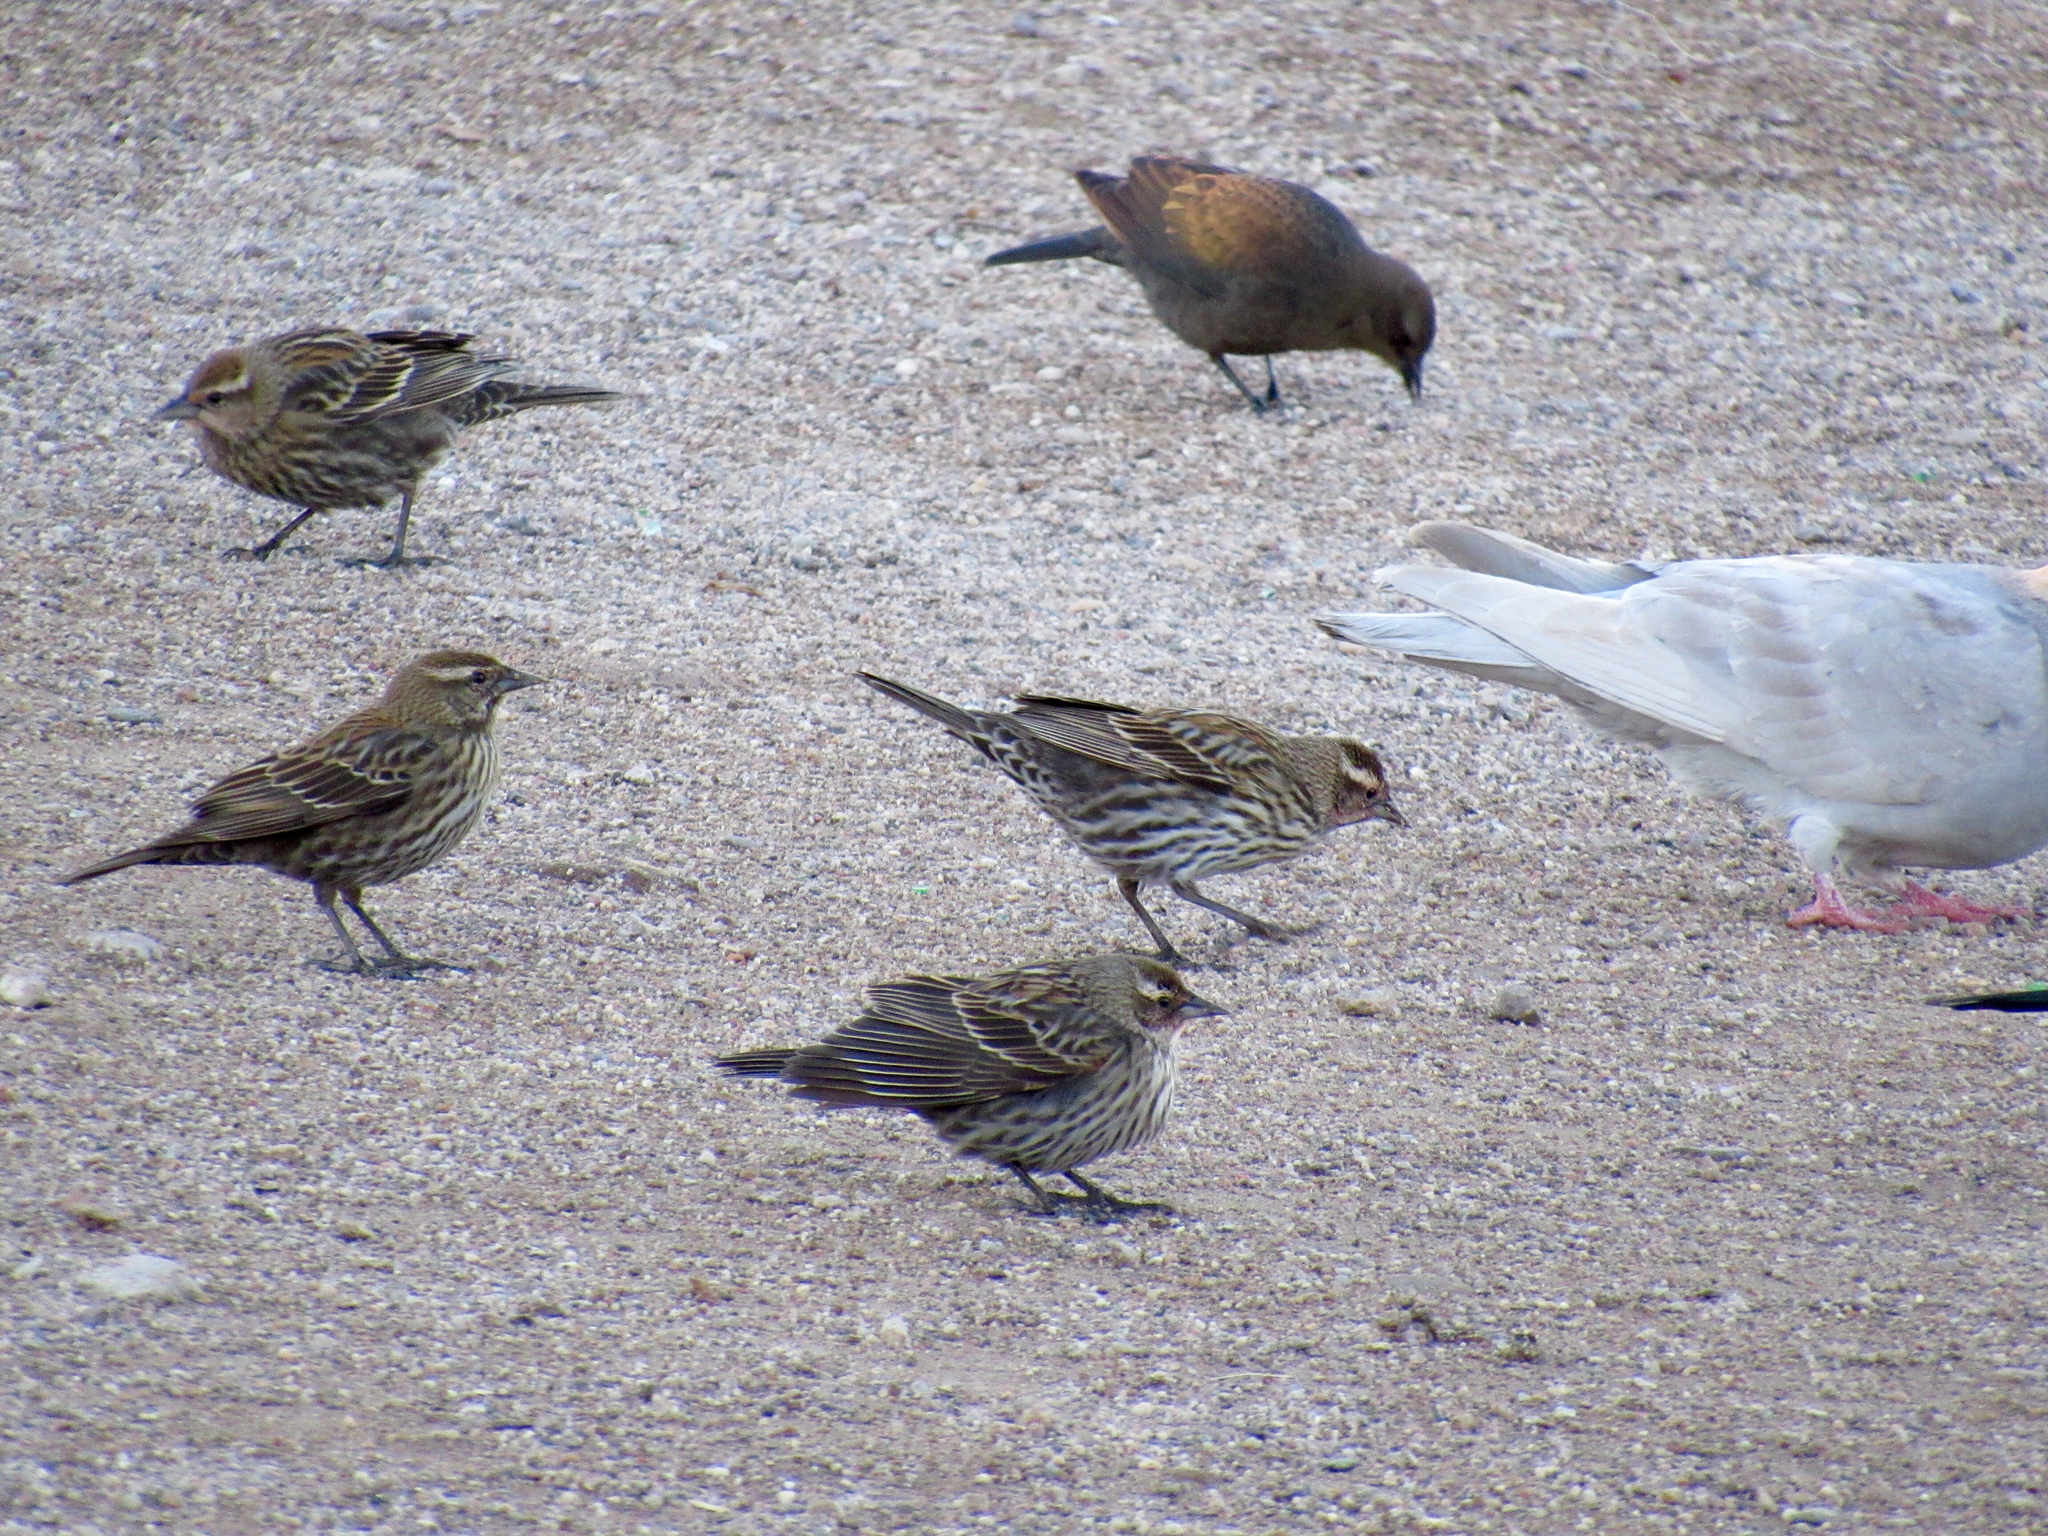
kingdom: Animalia
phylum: Chordata
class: Aves
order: Passeriformes
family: Icteridae
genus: Agelaius
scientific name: Agelaius phoeniceus
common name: Red-winged blackbird
